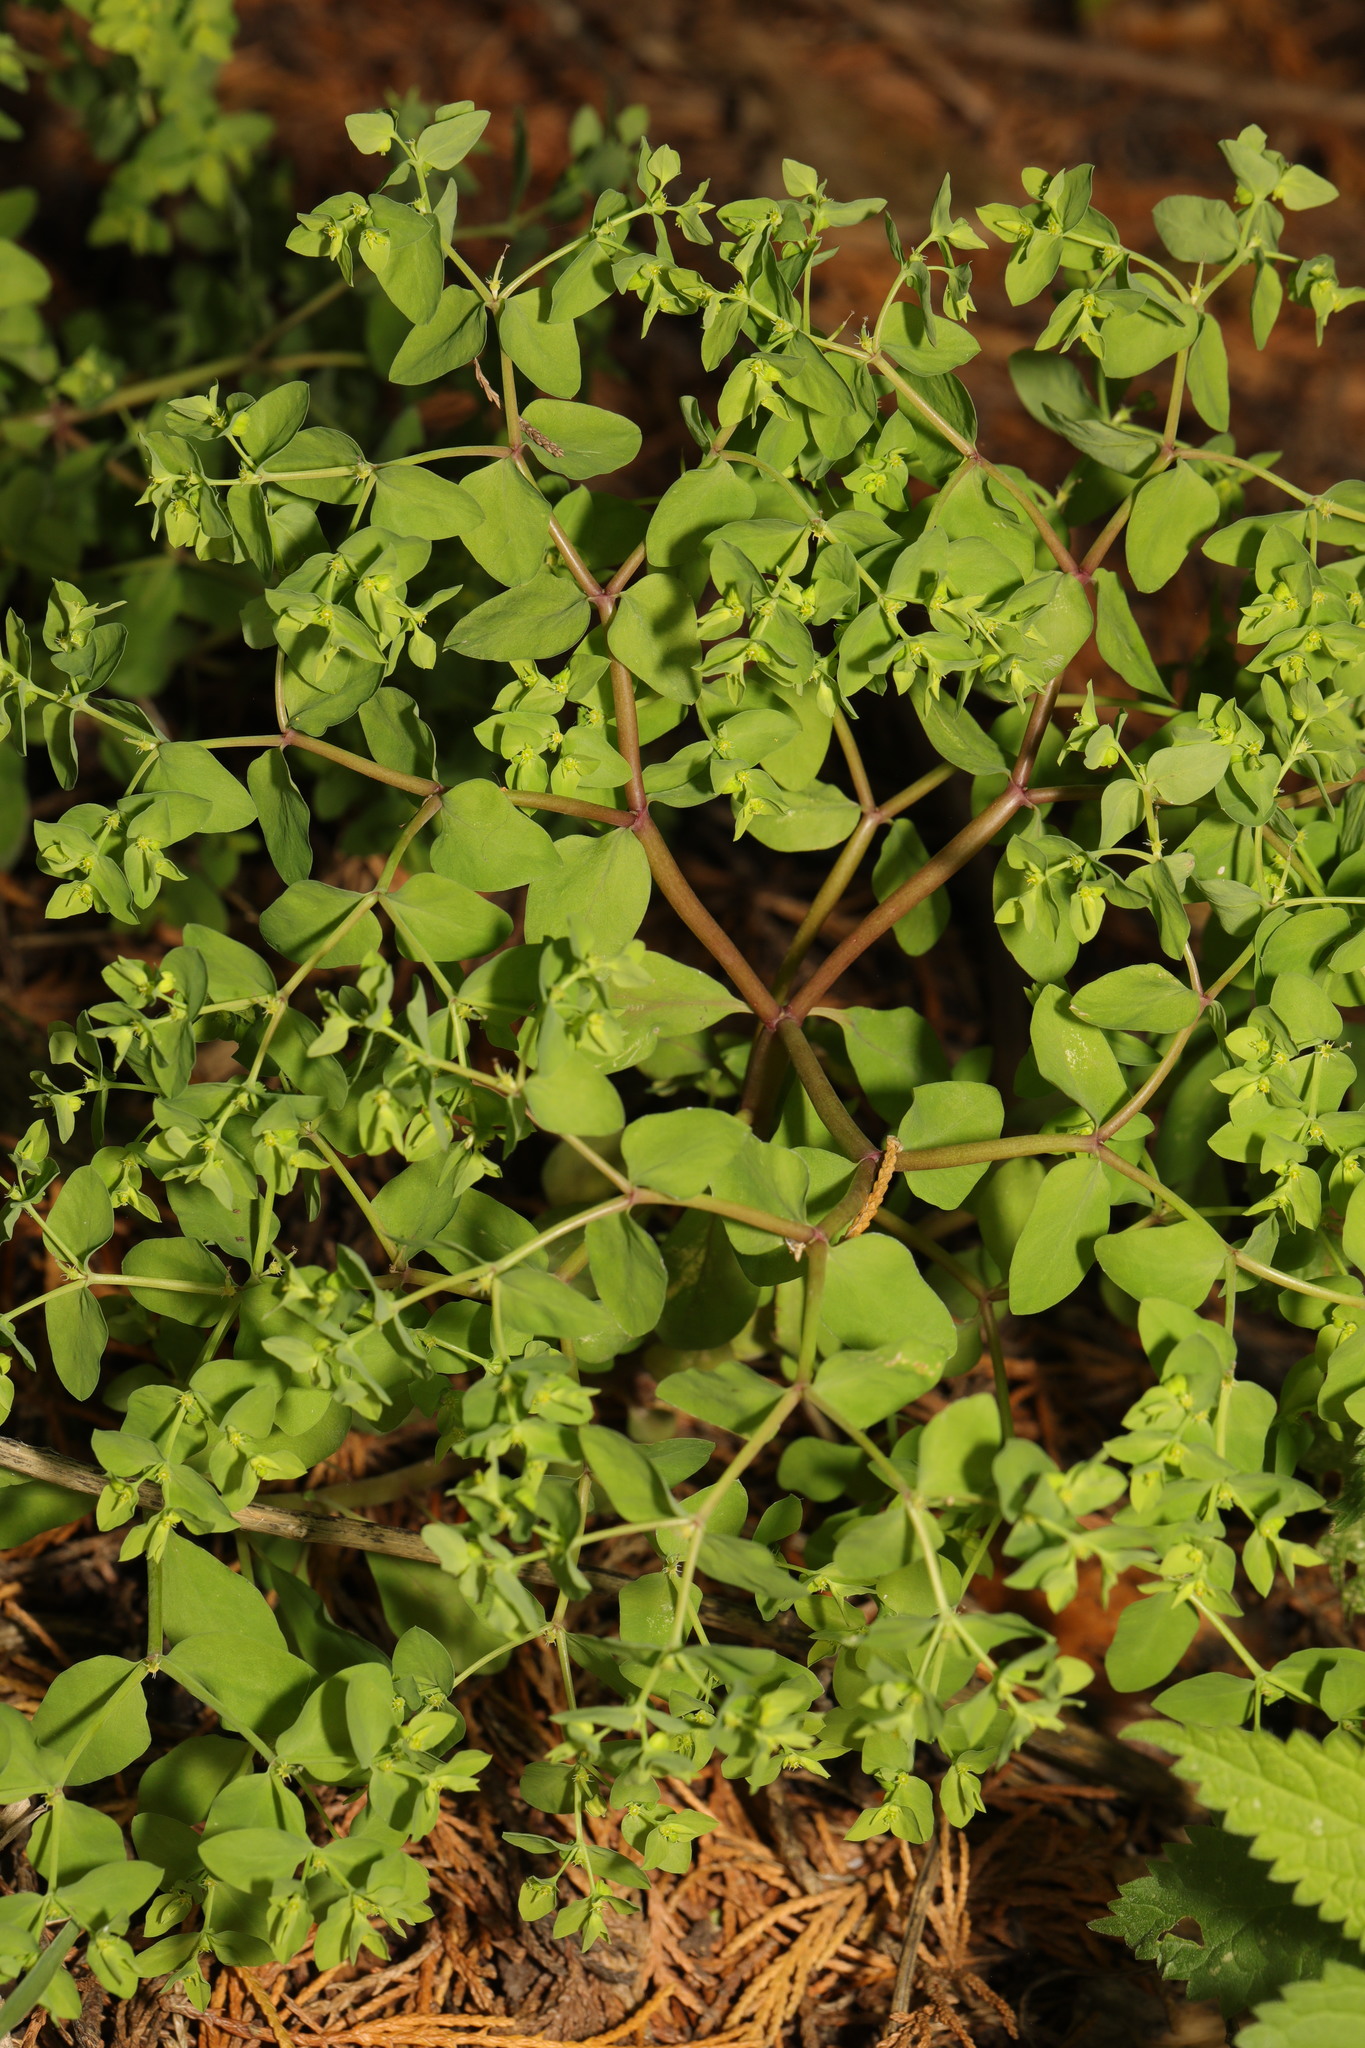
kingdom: Plantae
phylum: Tracheophyta
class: Magnoliopsida
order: Malpighiales
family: Euphorbiaceae
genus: Euphorbia
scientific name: Euphorbia peplus
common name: Petty spurge
